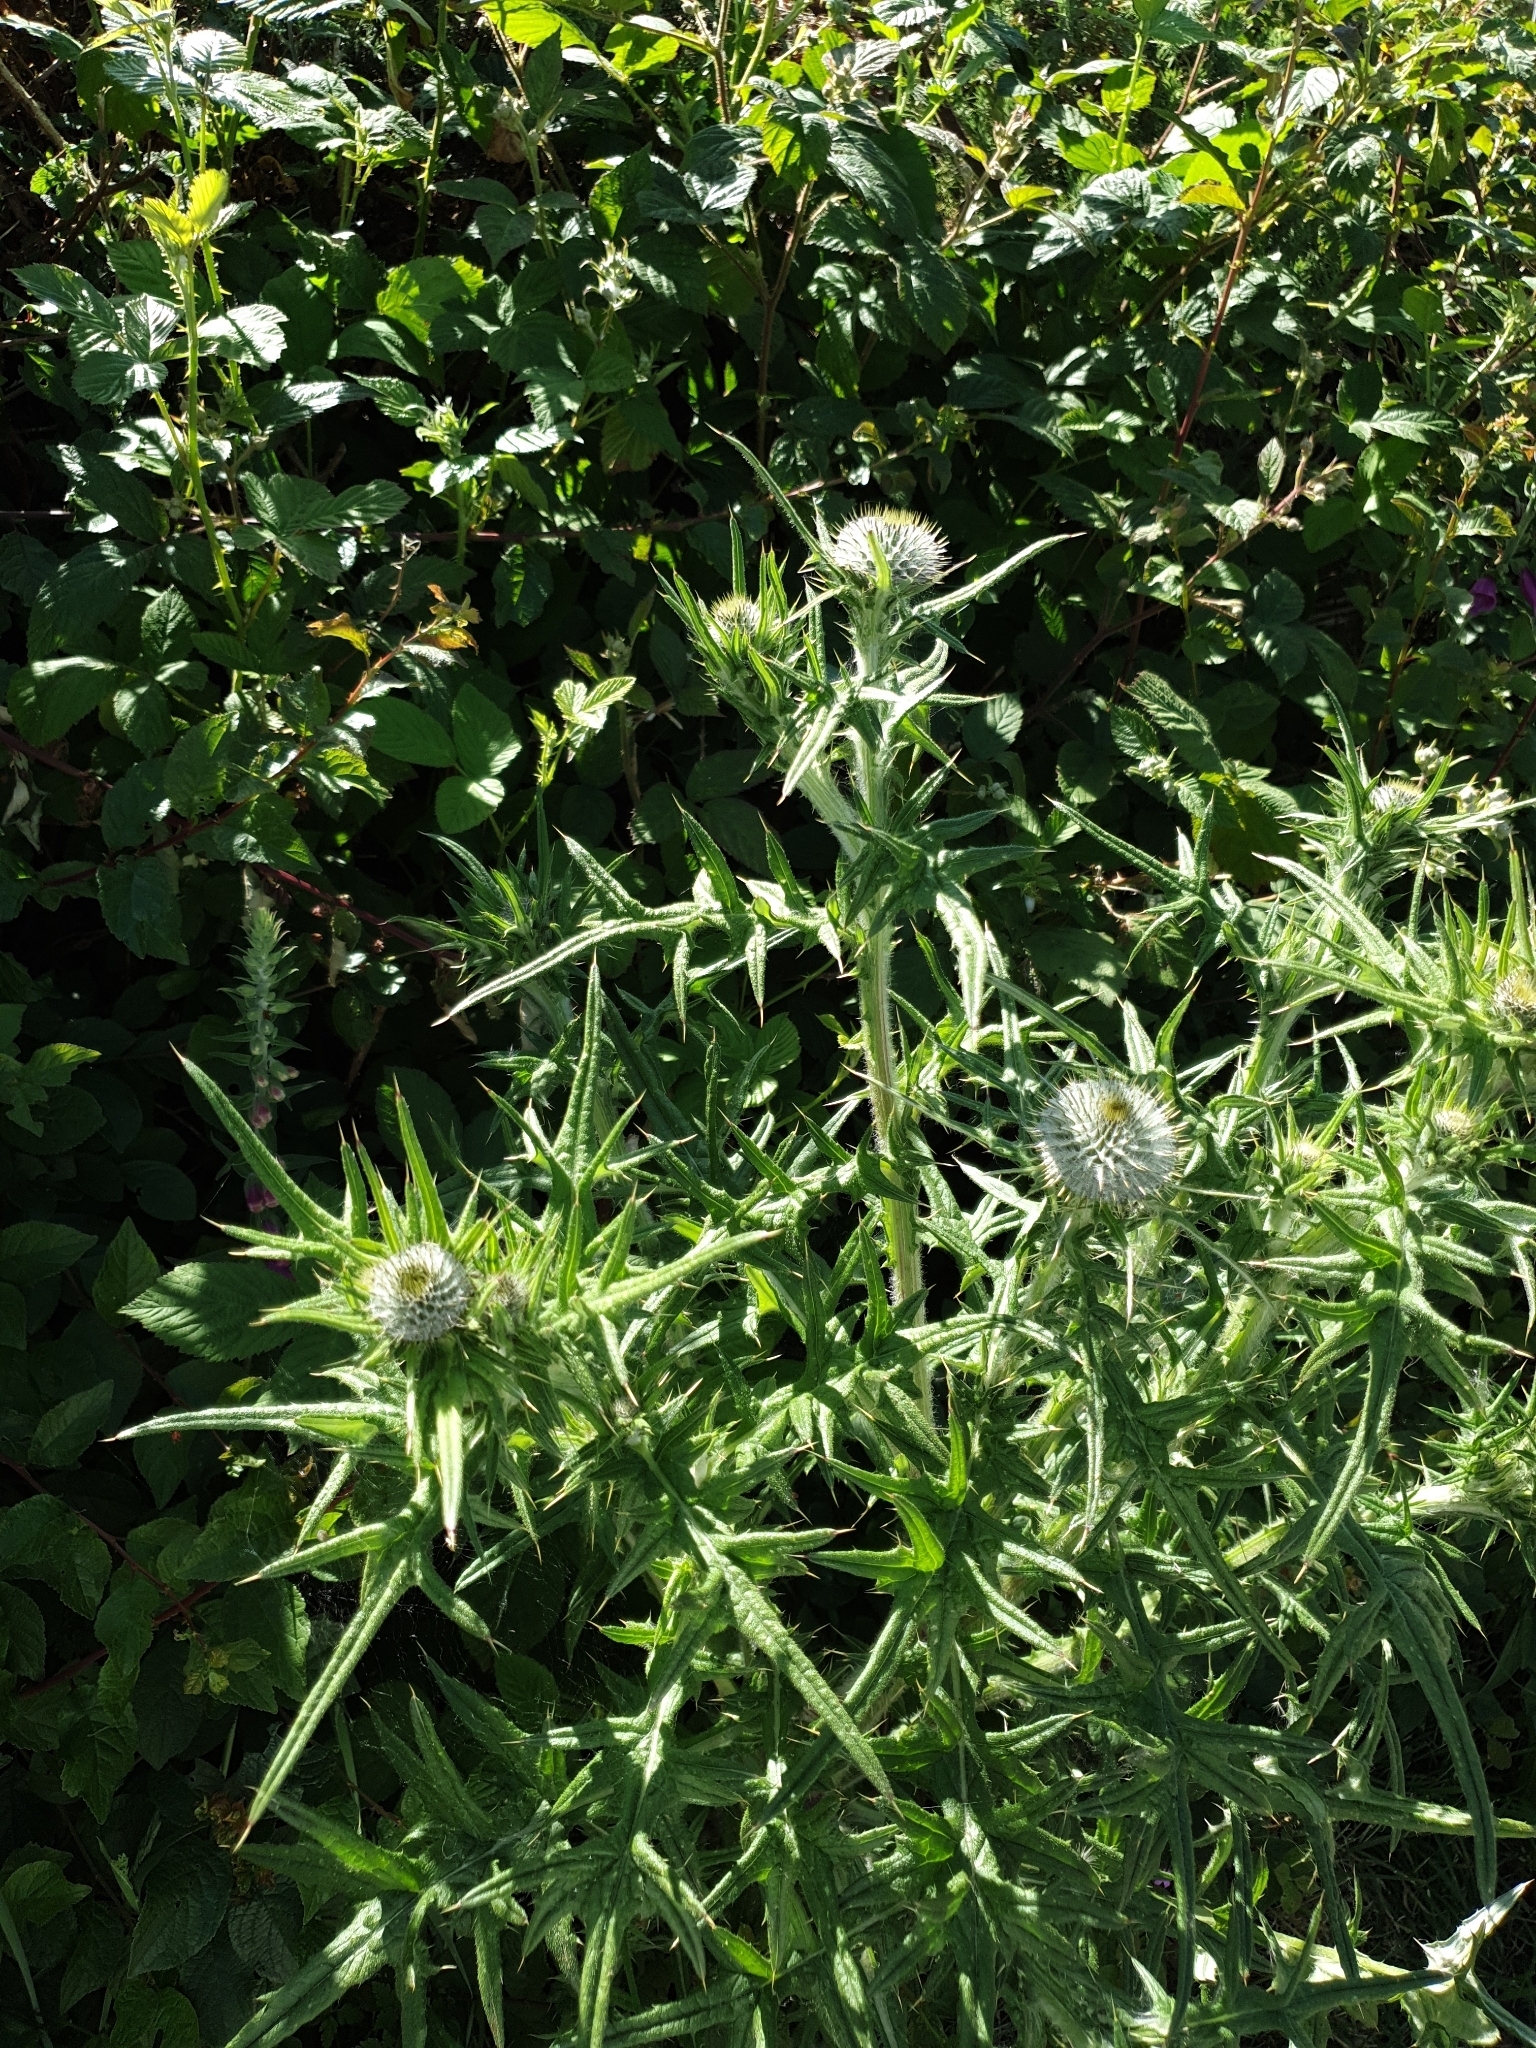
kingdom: Plantae
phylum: Tracheophyta
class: Magnoliopsida
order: Asterales
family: Asteraceae
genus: Cirsium
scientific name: Cirsium vulgare
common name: Bull thistle
